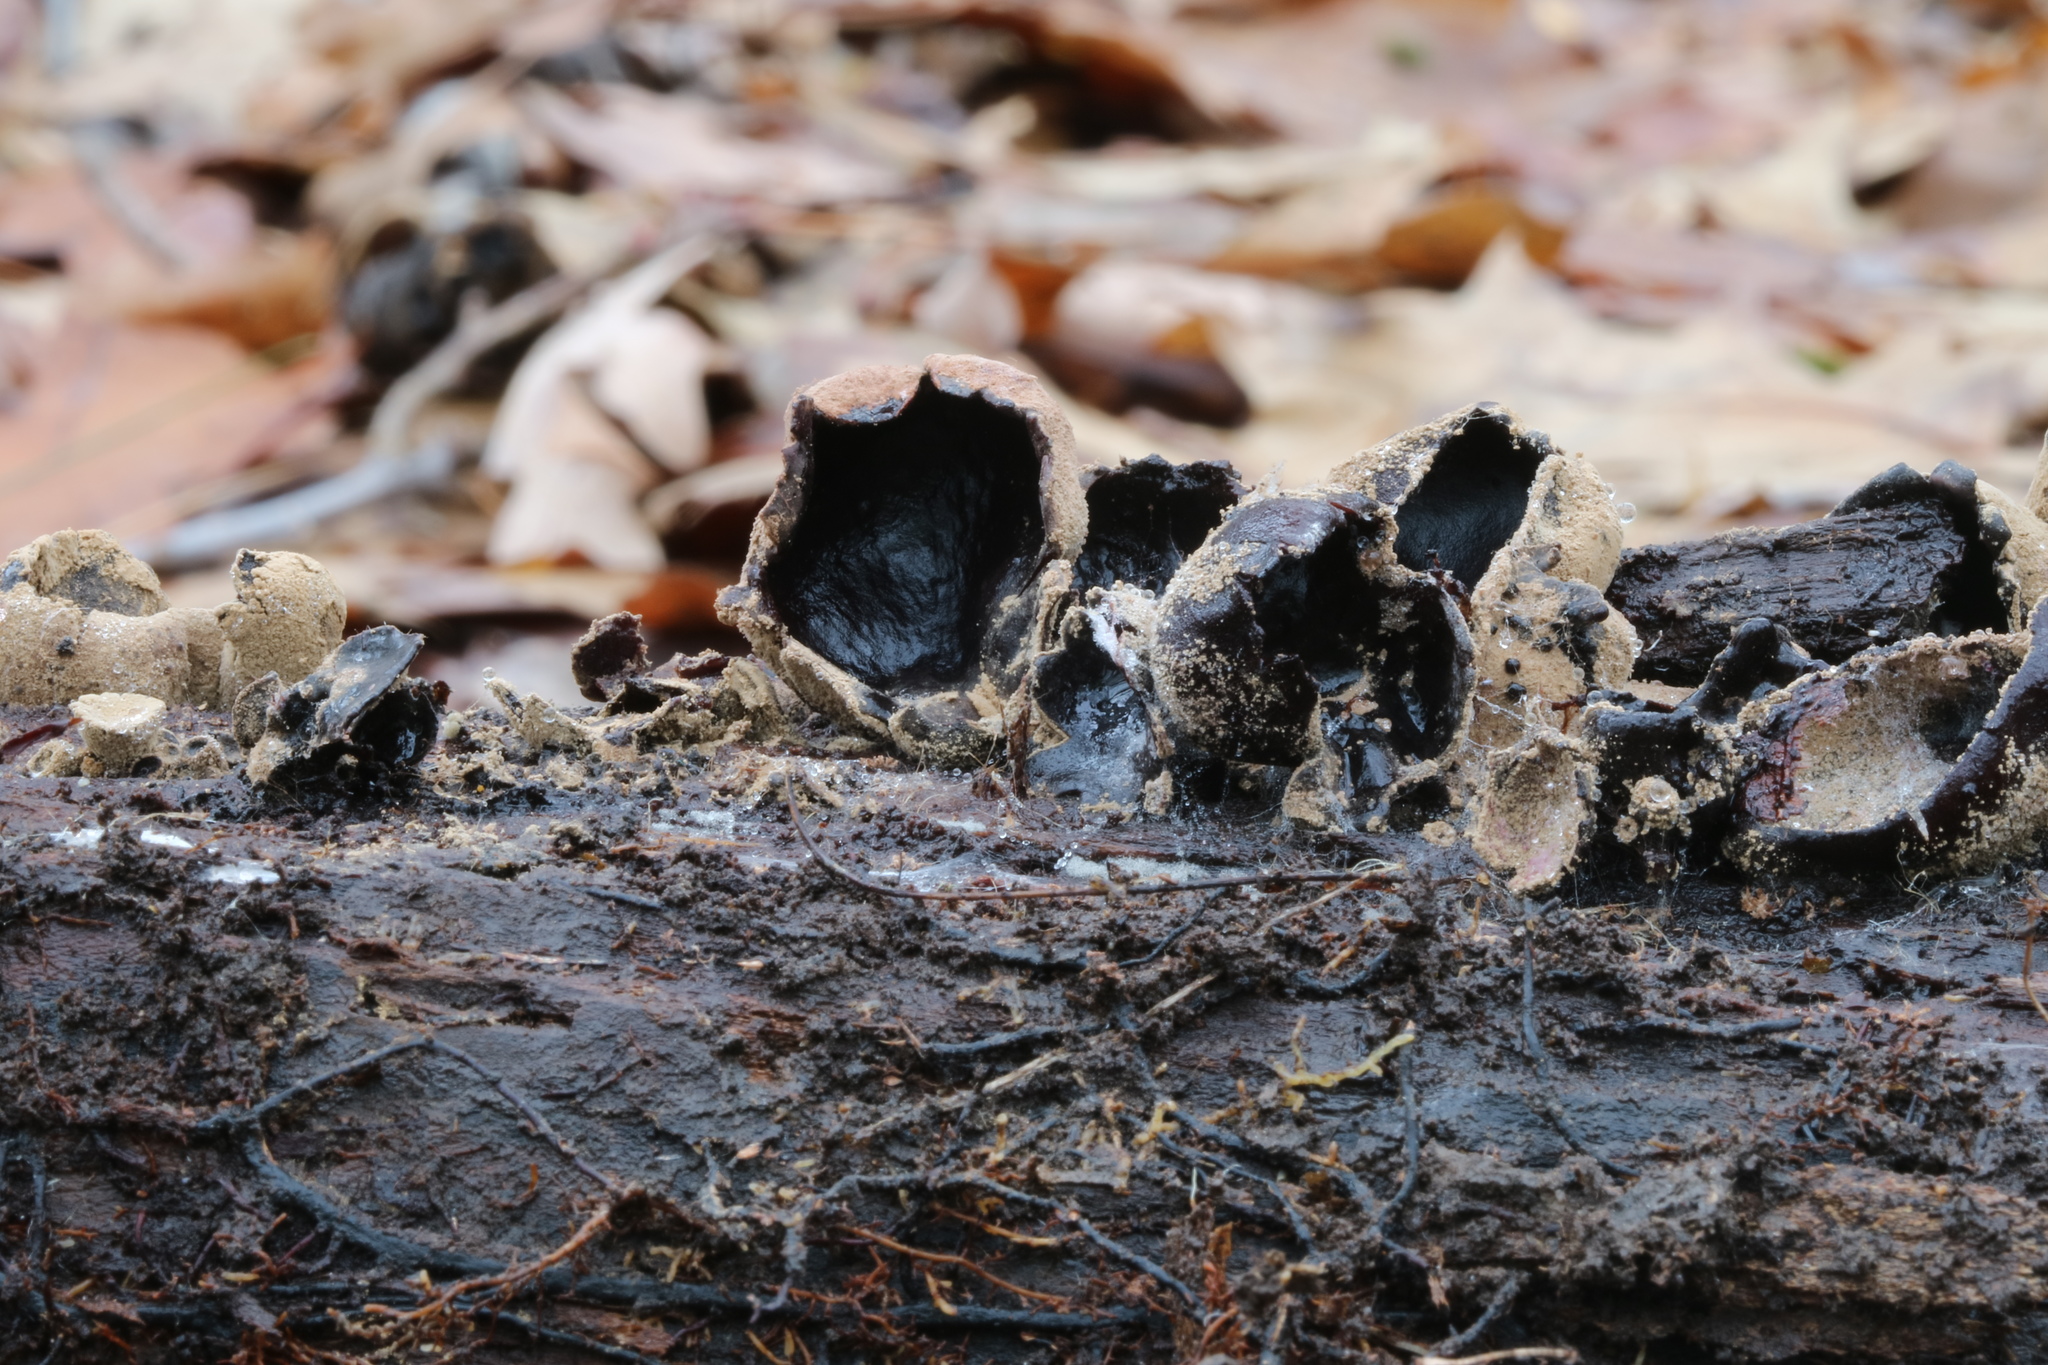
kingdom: Fungi
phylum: Ascomycota
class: Leotiomycetes
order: Helotiales
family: Cordieritidaceae
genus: Diplocarpa
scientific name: Diplocarpa irregularis
